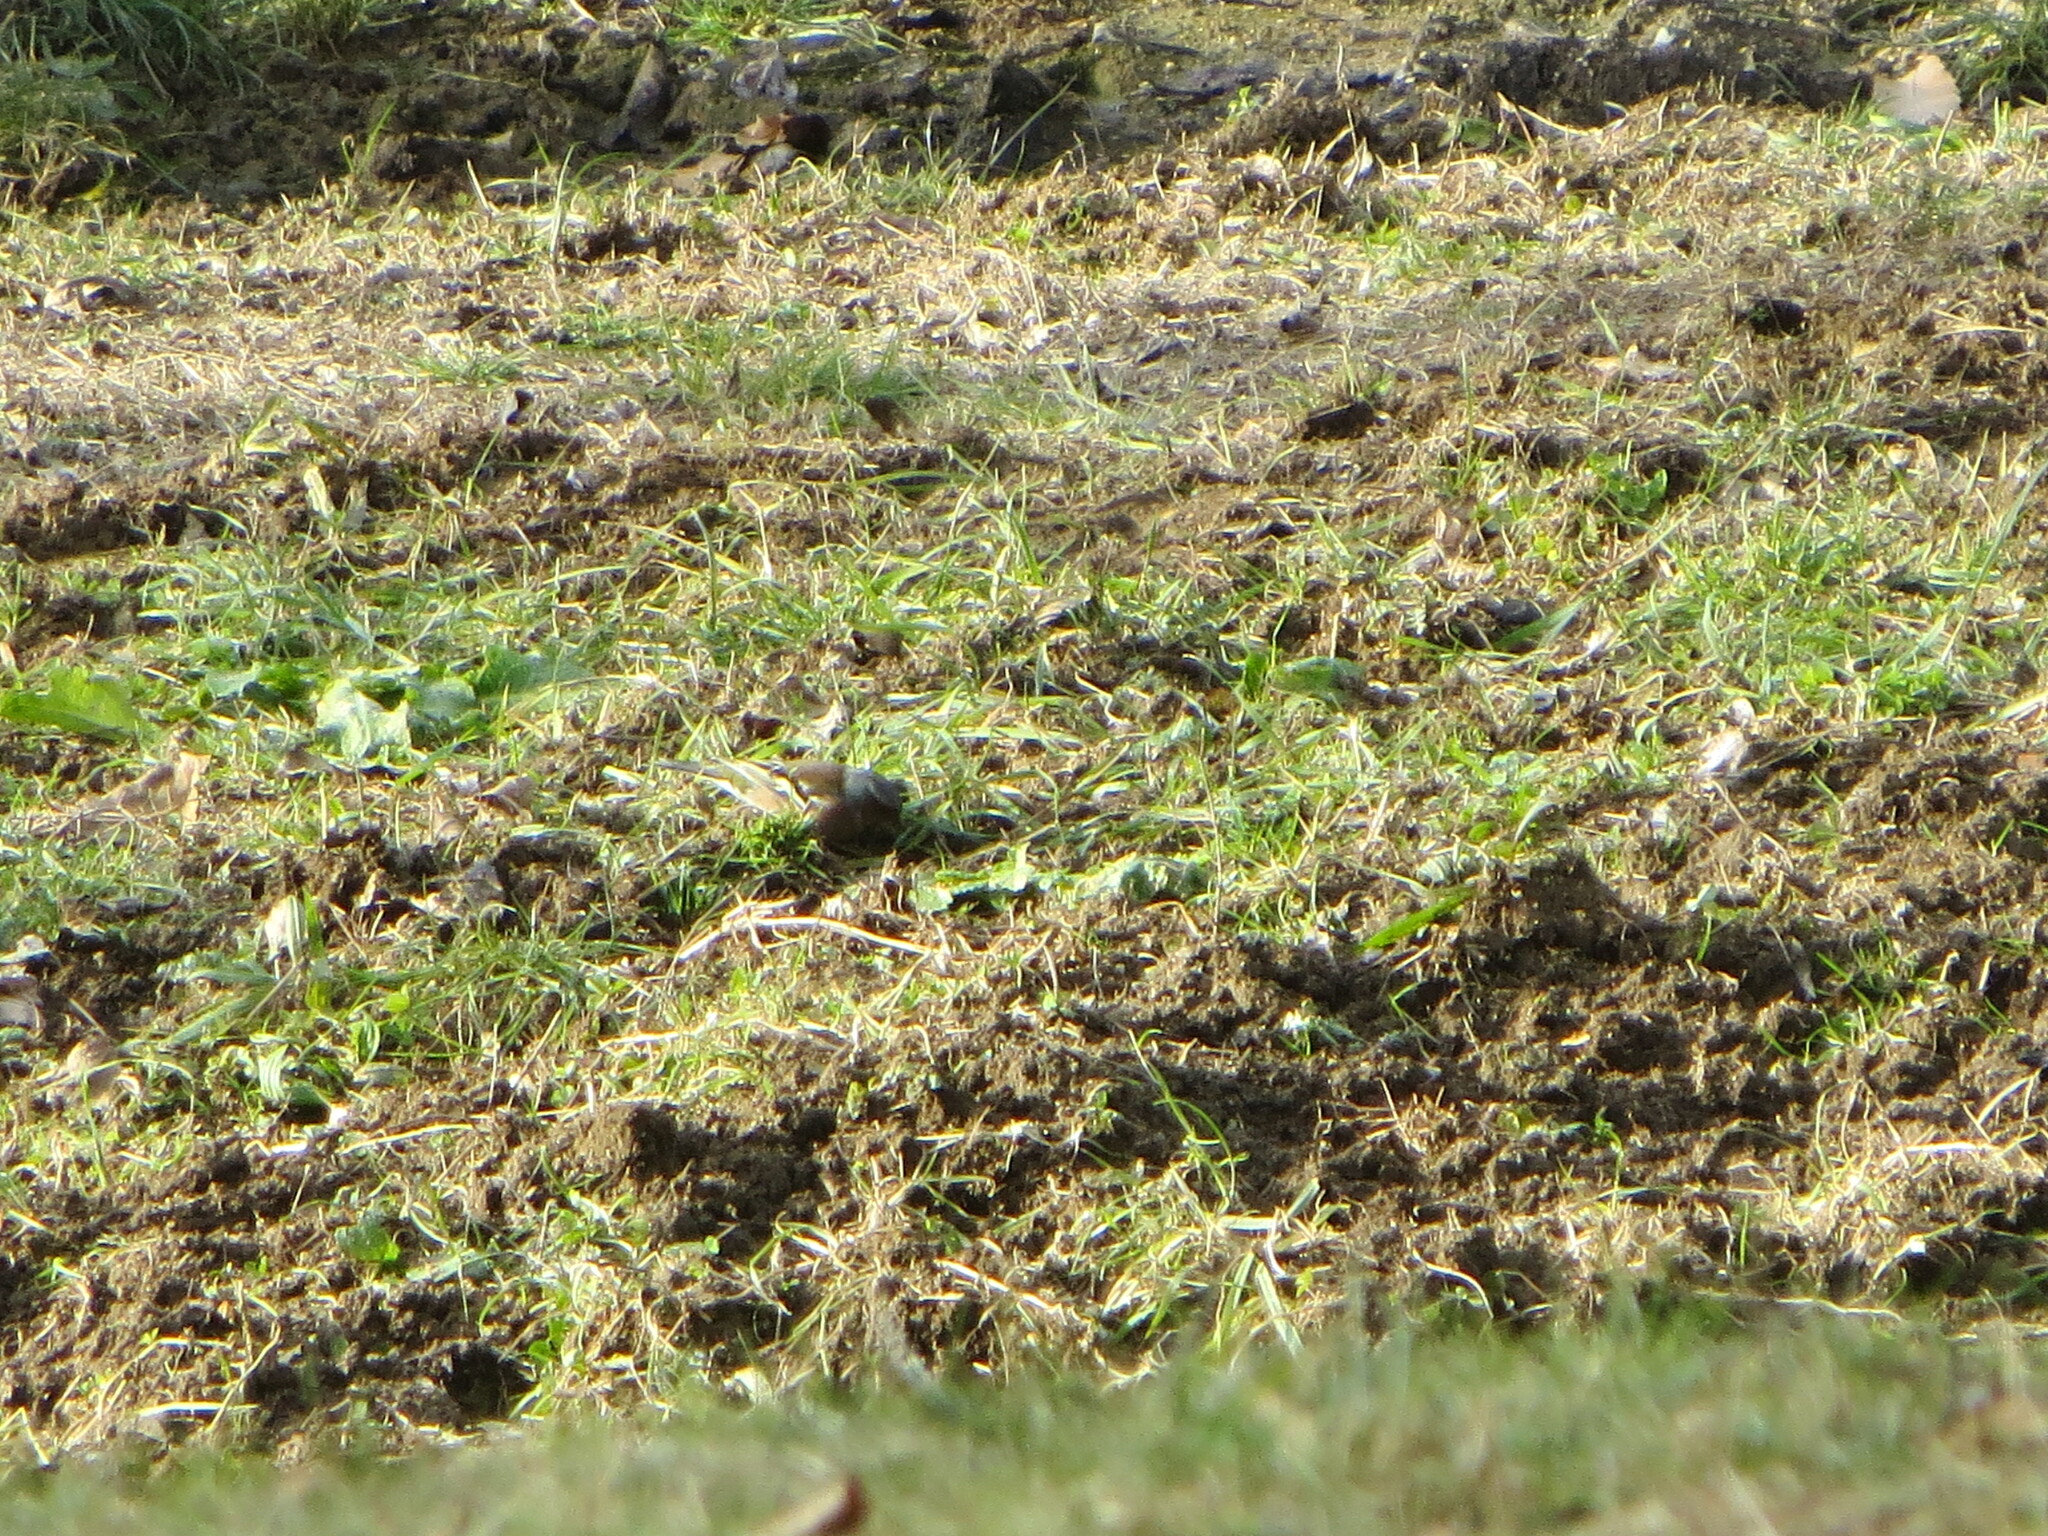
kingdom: Animalia
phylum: Chordata
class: Aves
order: Passeriformes
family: Fringillidae
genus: Fringilla
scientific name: Fringilla coelebs
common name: Common chaffinch
